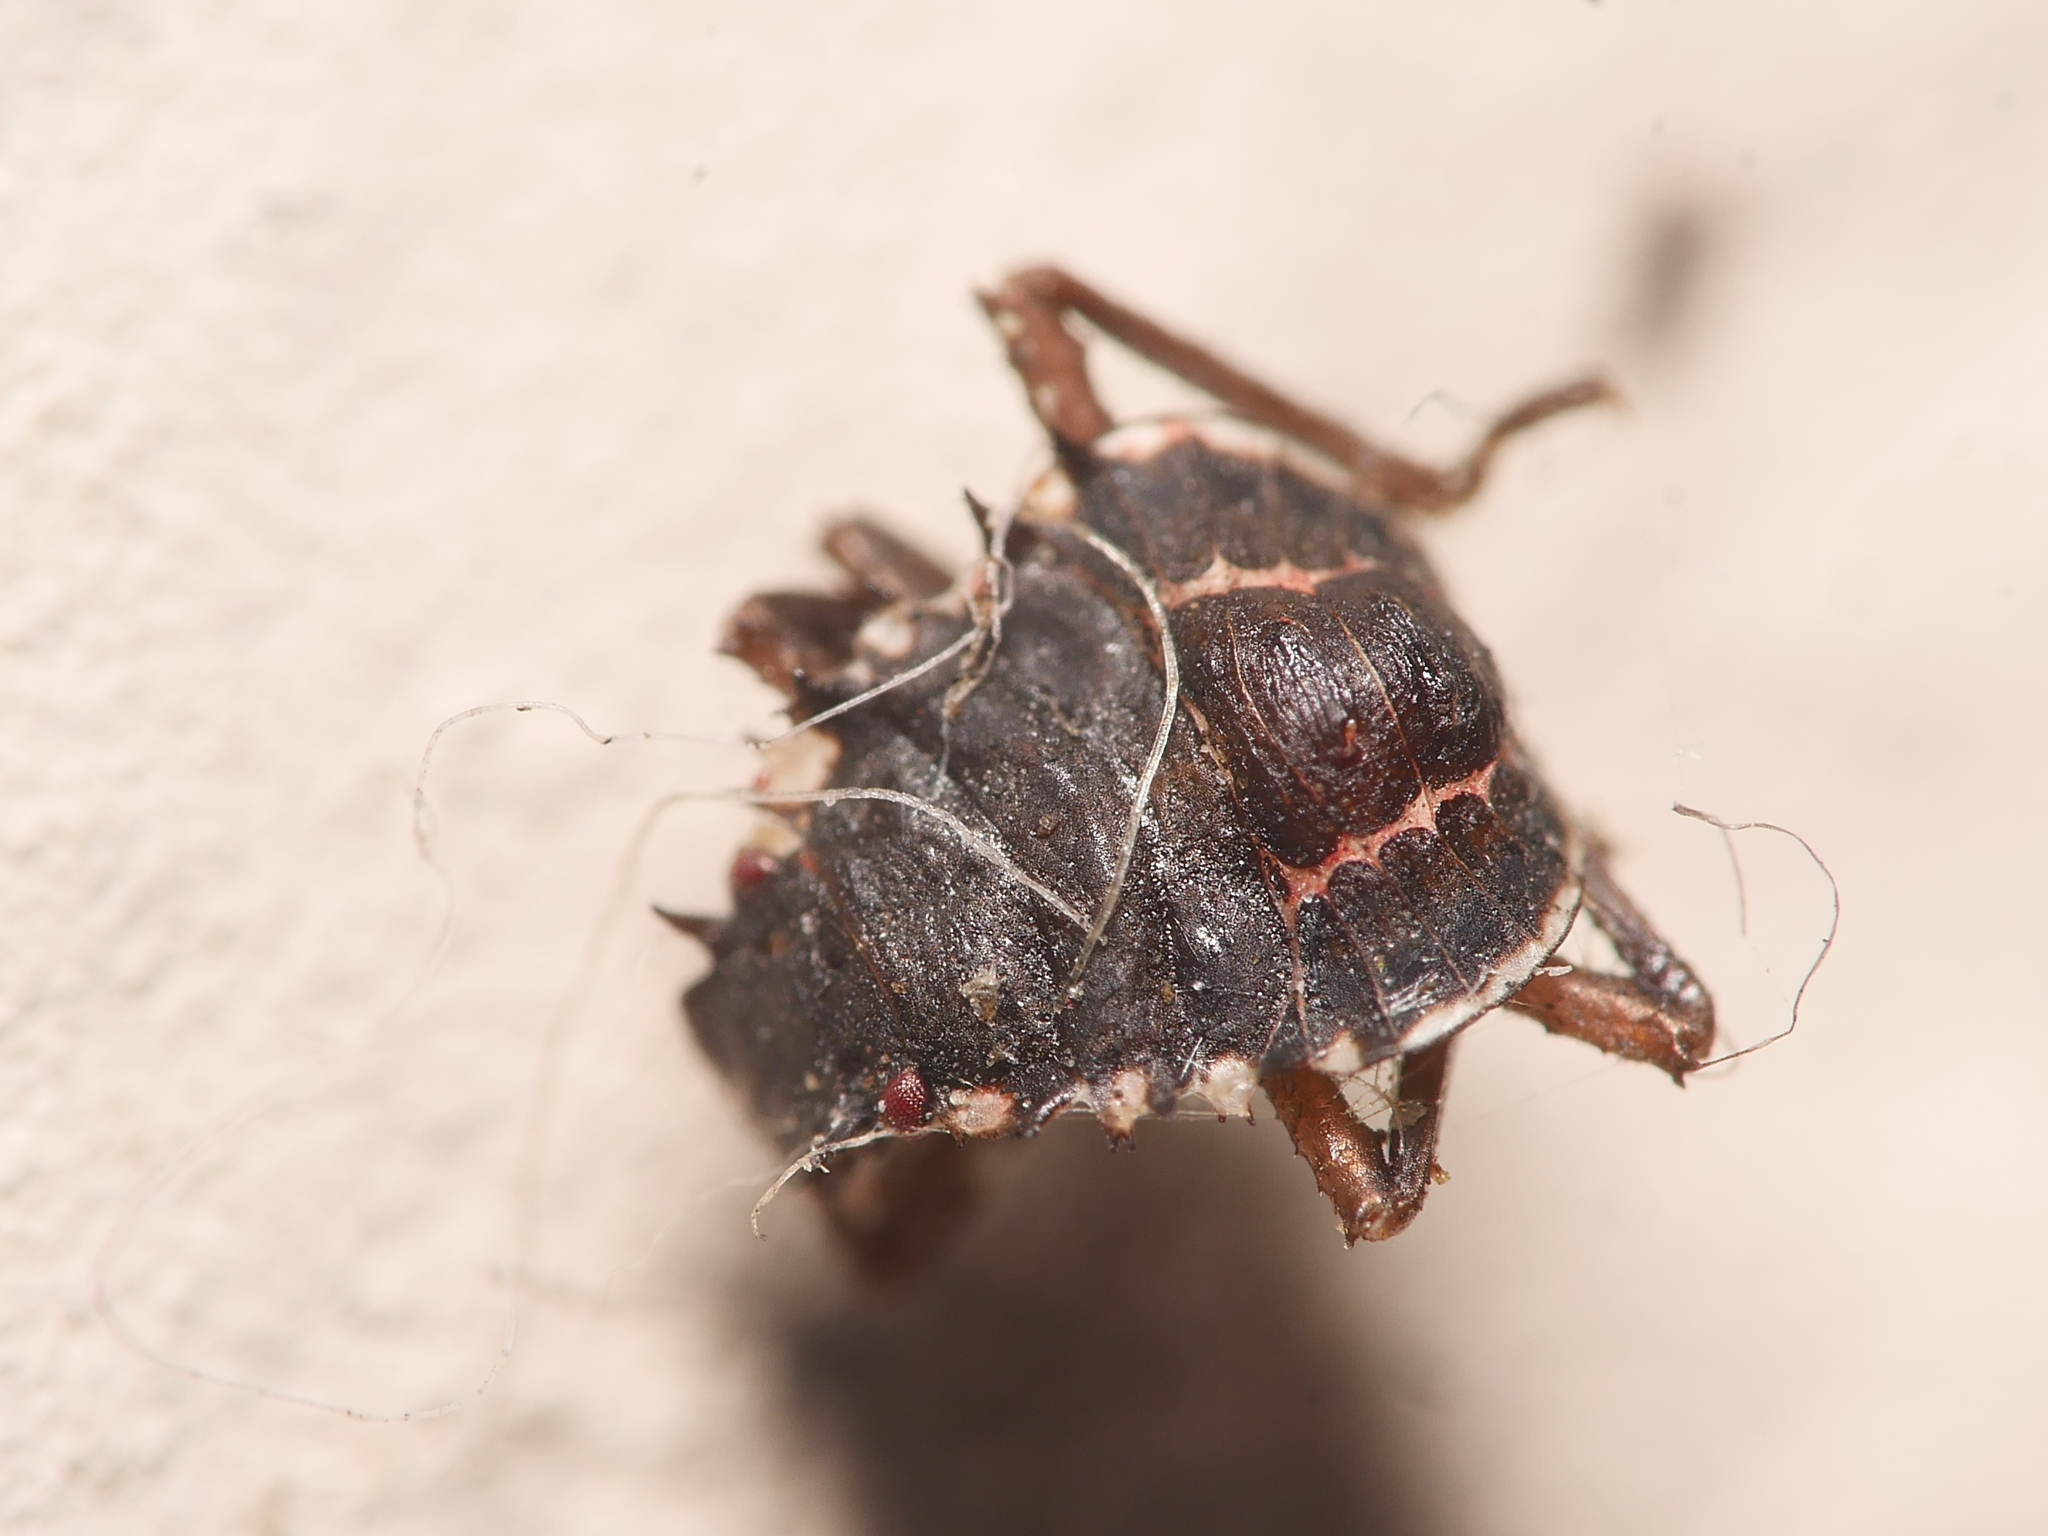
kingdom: Animalia
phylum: Arthropoda
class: Insecta
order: Hemiptera
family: Pentatomidae
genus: Halyomorpha
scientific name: Halyomorpha halys
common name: Brown marmorated stink bug
